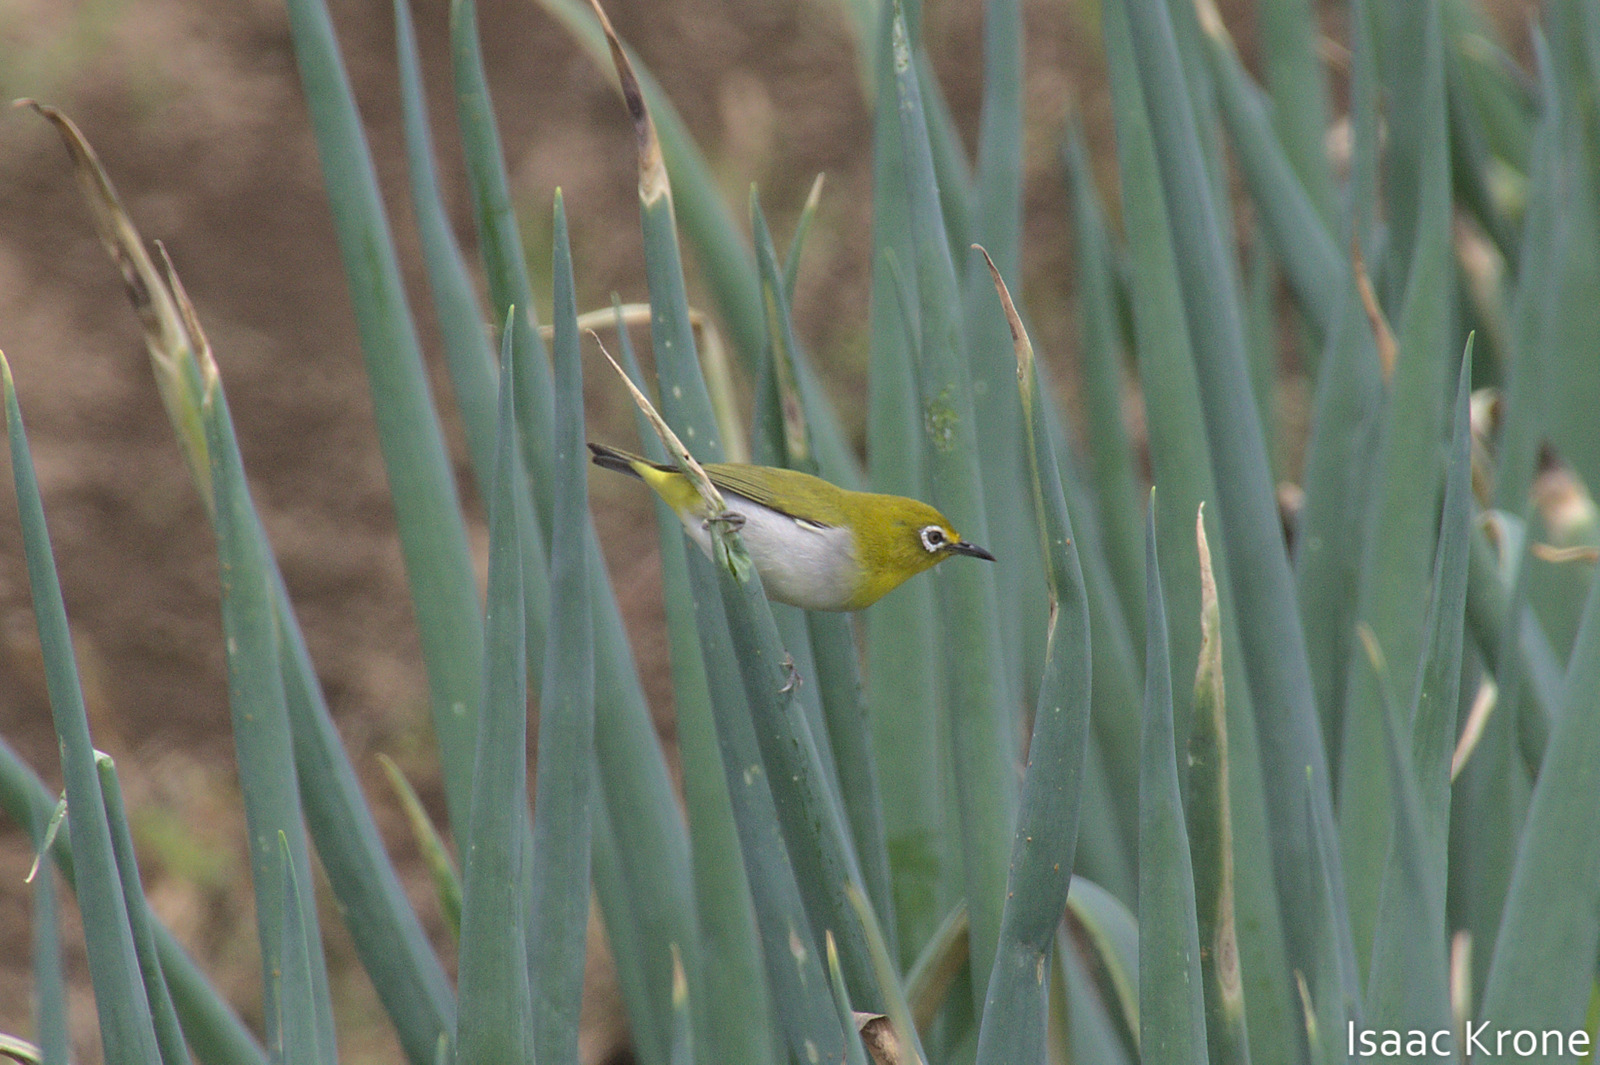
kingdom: Animalia
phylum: Chordata
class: Aves
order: Passeriformes
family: Zosteropidae
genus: Zosterops
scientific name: Zosterops japonicus
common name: Japanese white-eye
